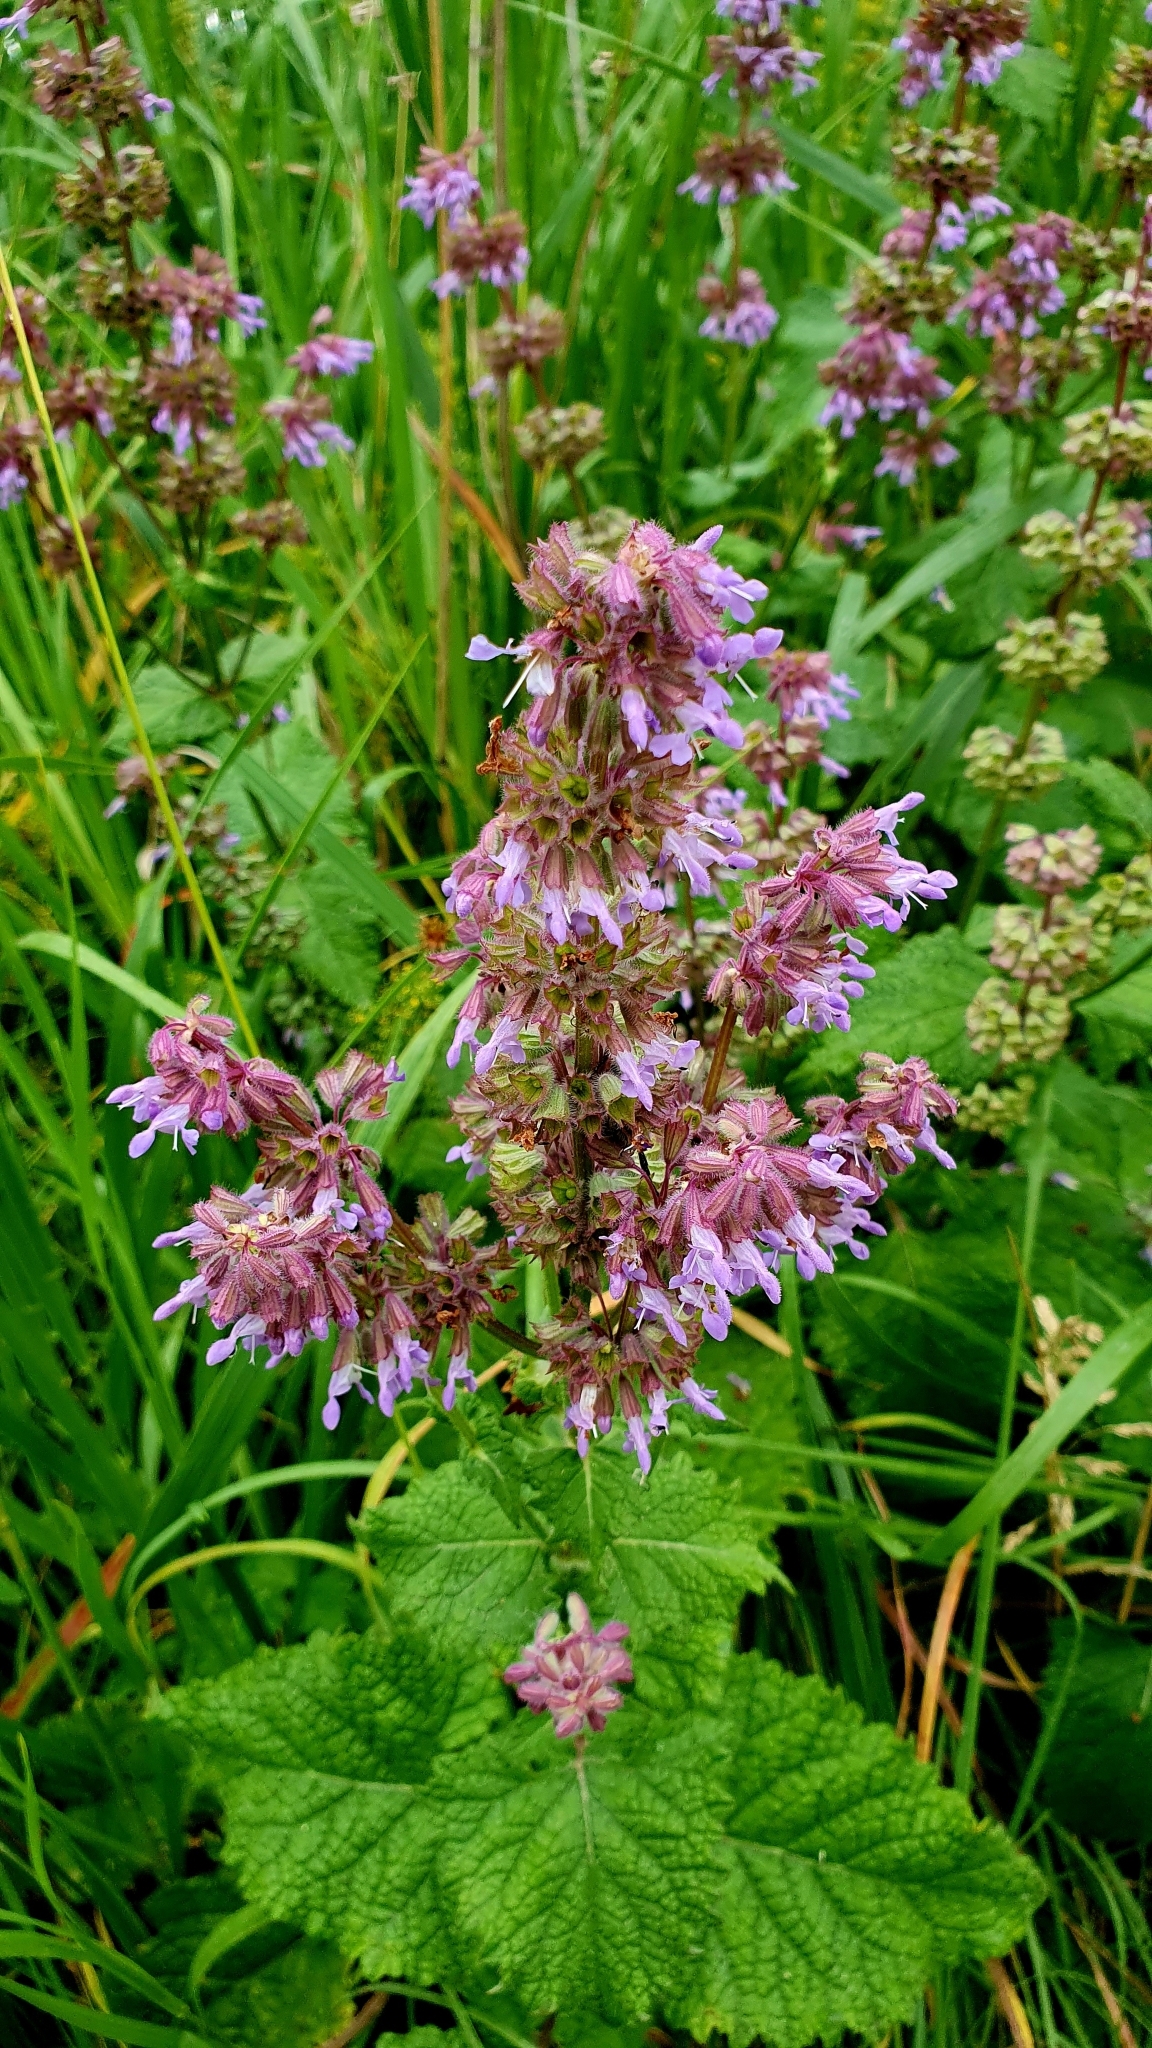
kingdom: Plantae
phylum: Tracheophyta
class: Magnoliopsida
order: Lamiales
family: Lamiaceae
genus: Salvia
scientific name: Salvia verticillata
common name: Whorled clary
